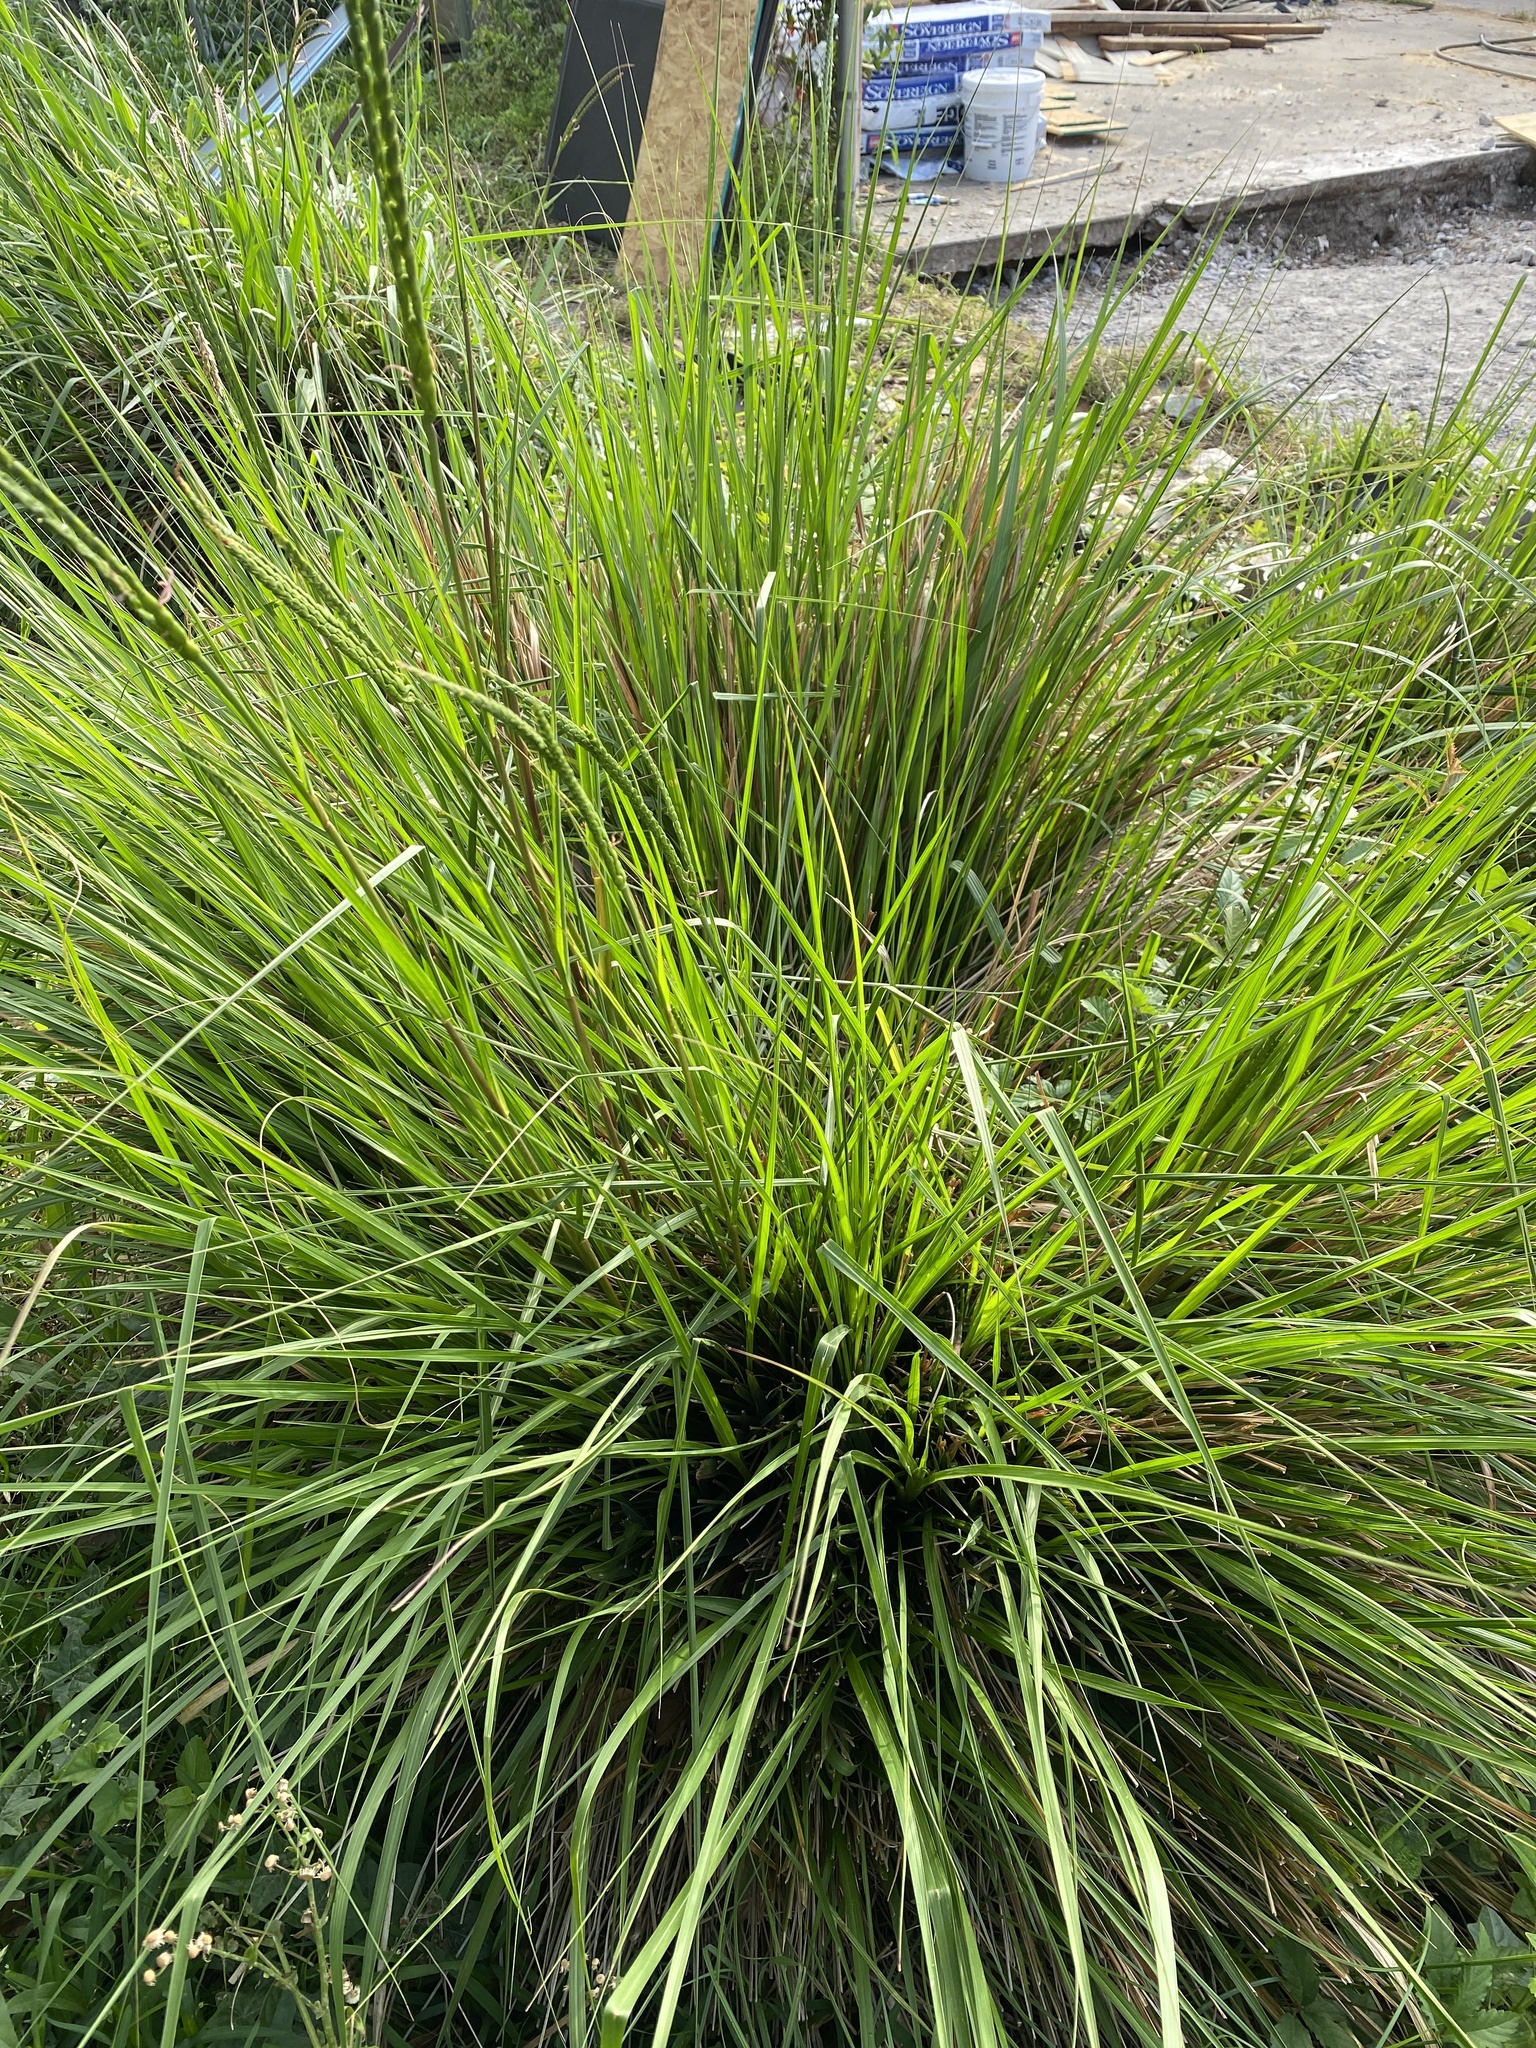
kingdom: Plantae
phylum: Tracheophyta
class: Liliopsida
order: Poales
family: Poaceae
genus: Tripsacum
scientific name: Tripsacum dactyloides
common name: Buffalo-grass
